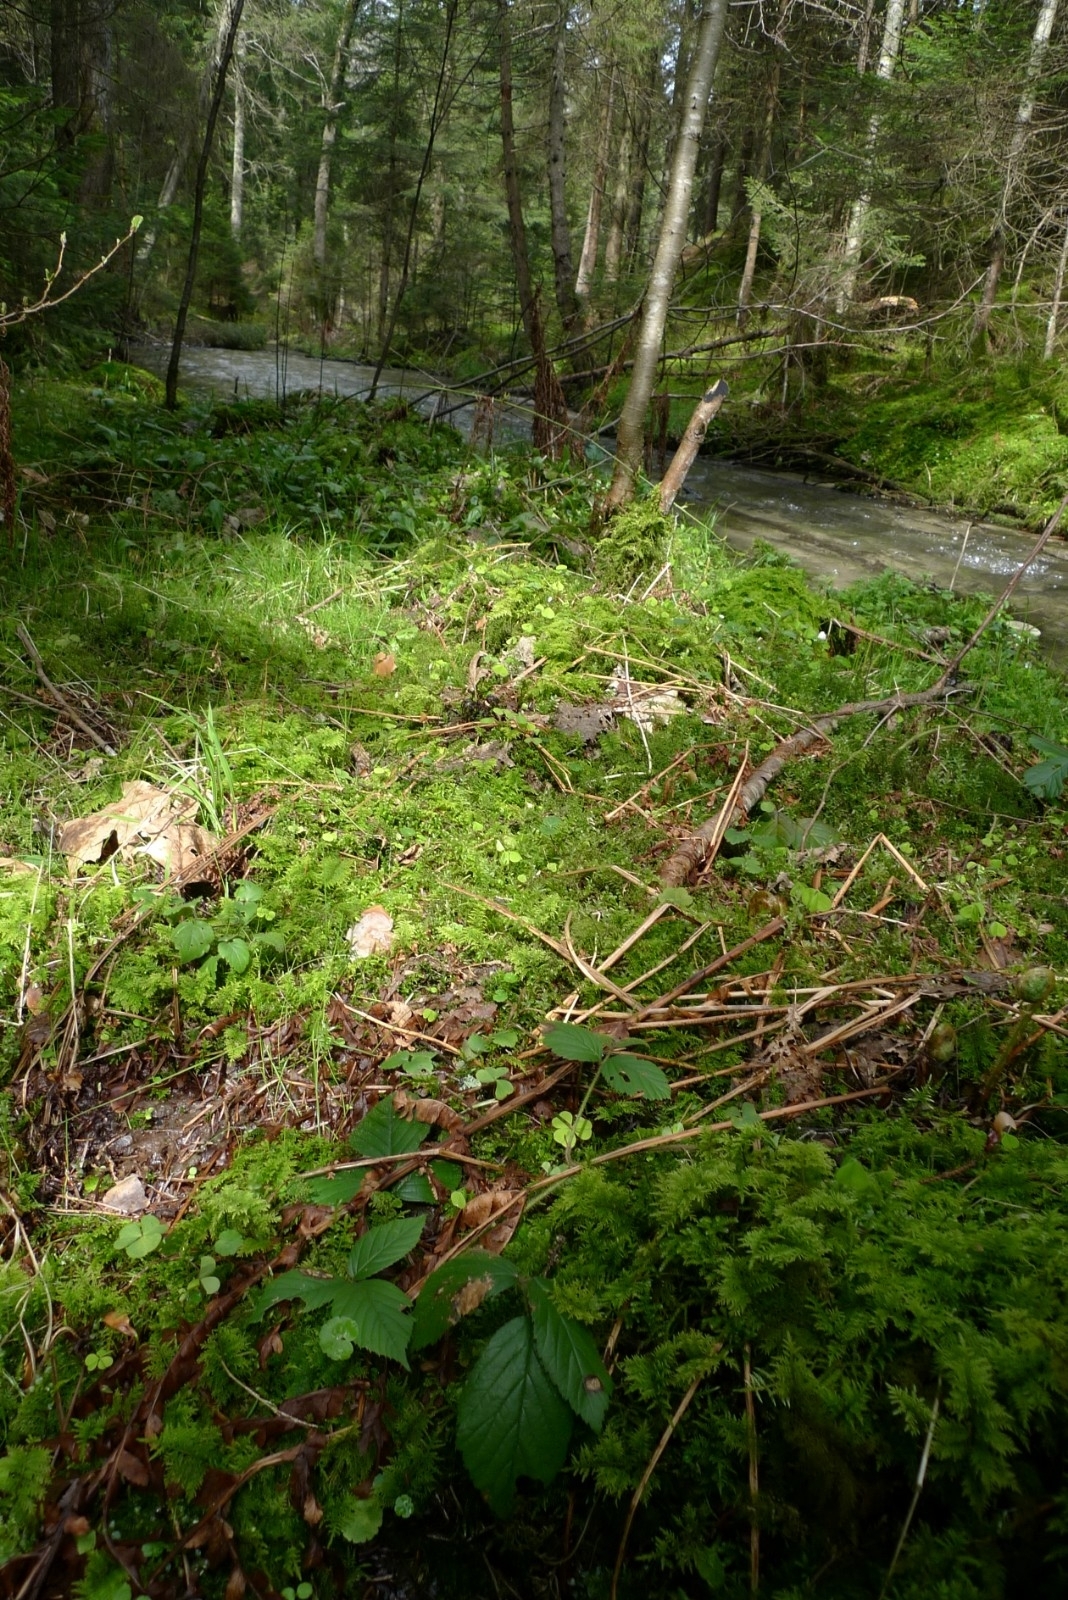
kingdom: Plantae
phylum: Bryophyta
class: Bryopsida
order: Bryales
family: Mniaceae
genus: Plagiomnium
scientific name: Plagiomnium undulatum
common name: Hart's-tongue thyme-moss
